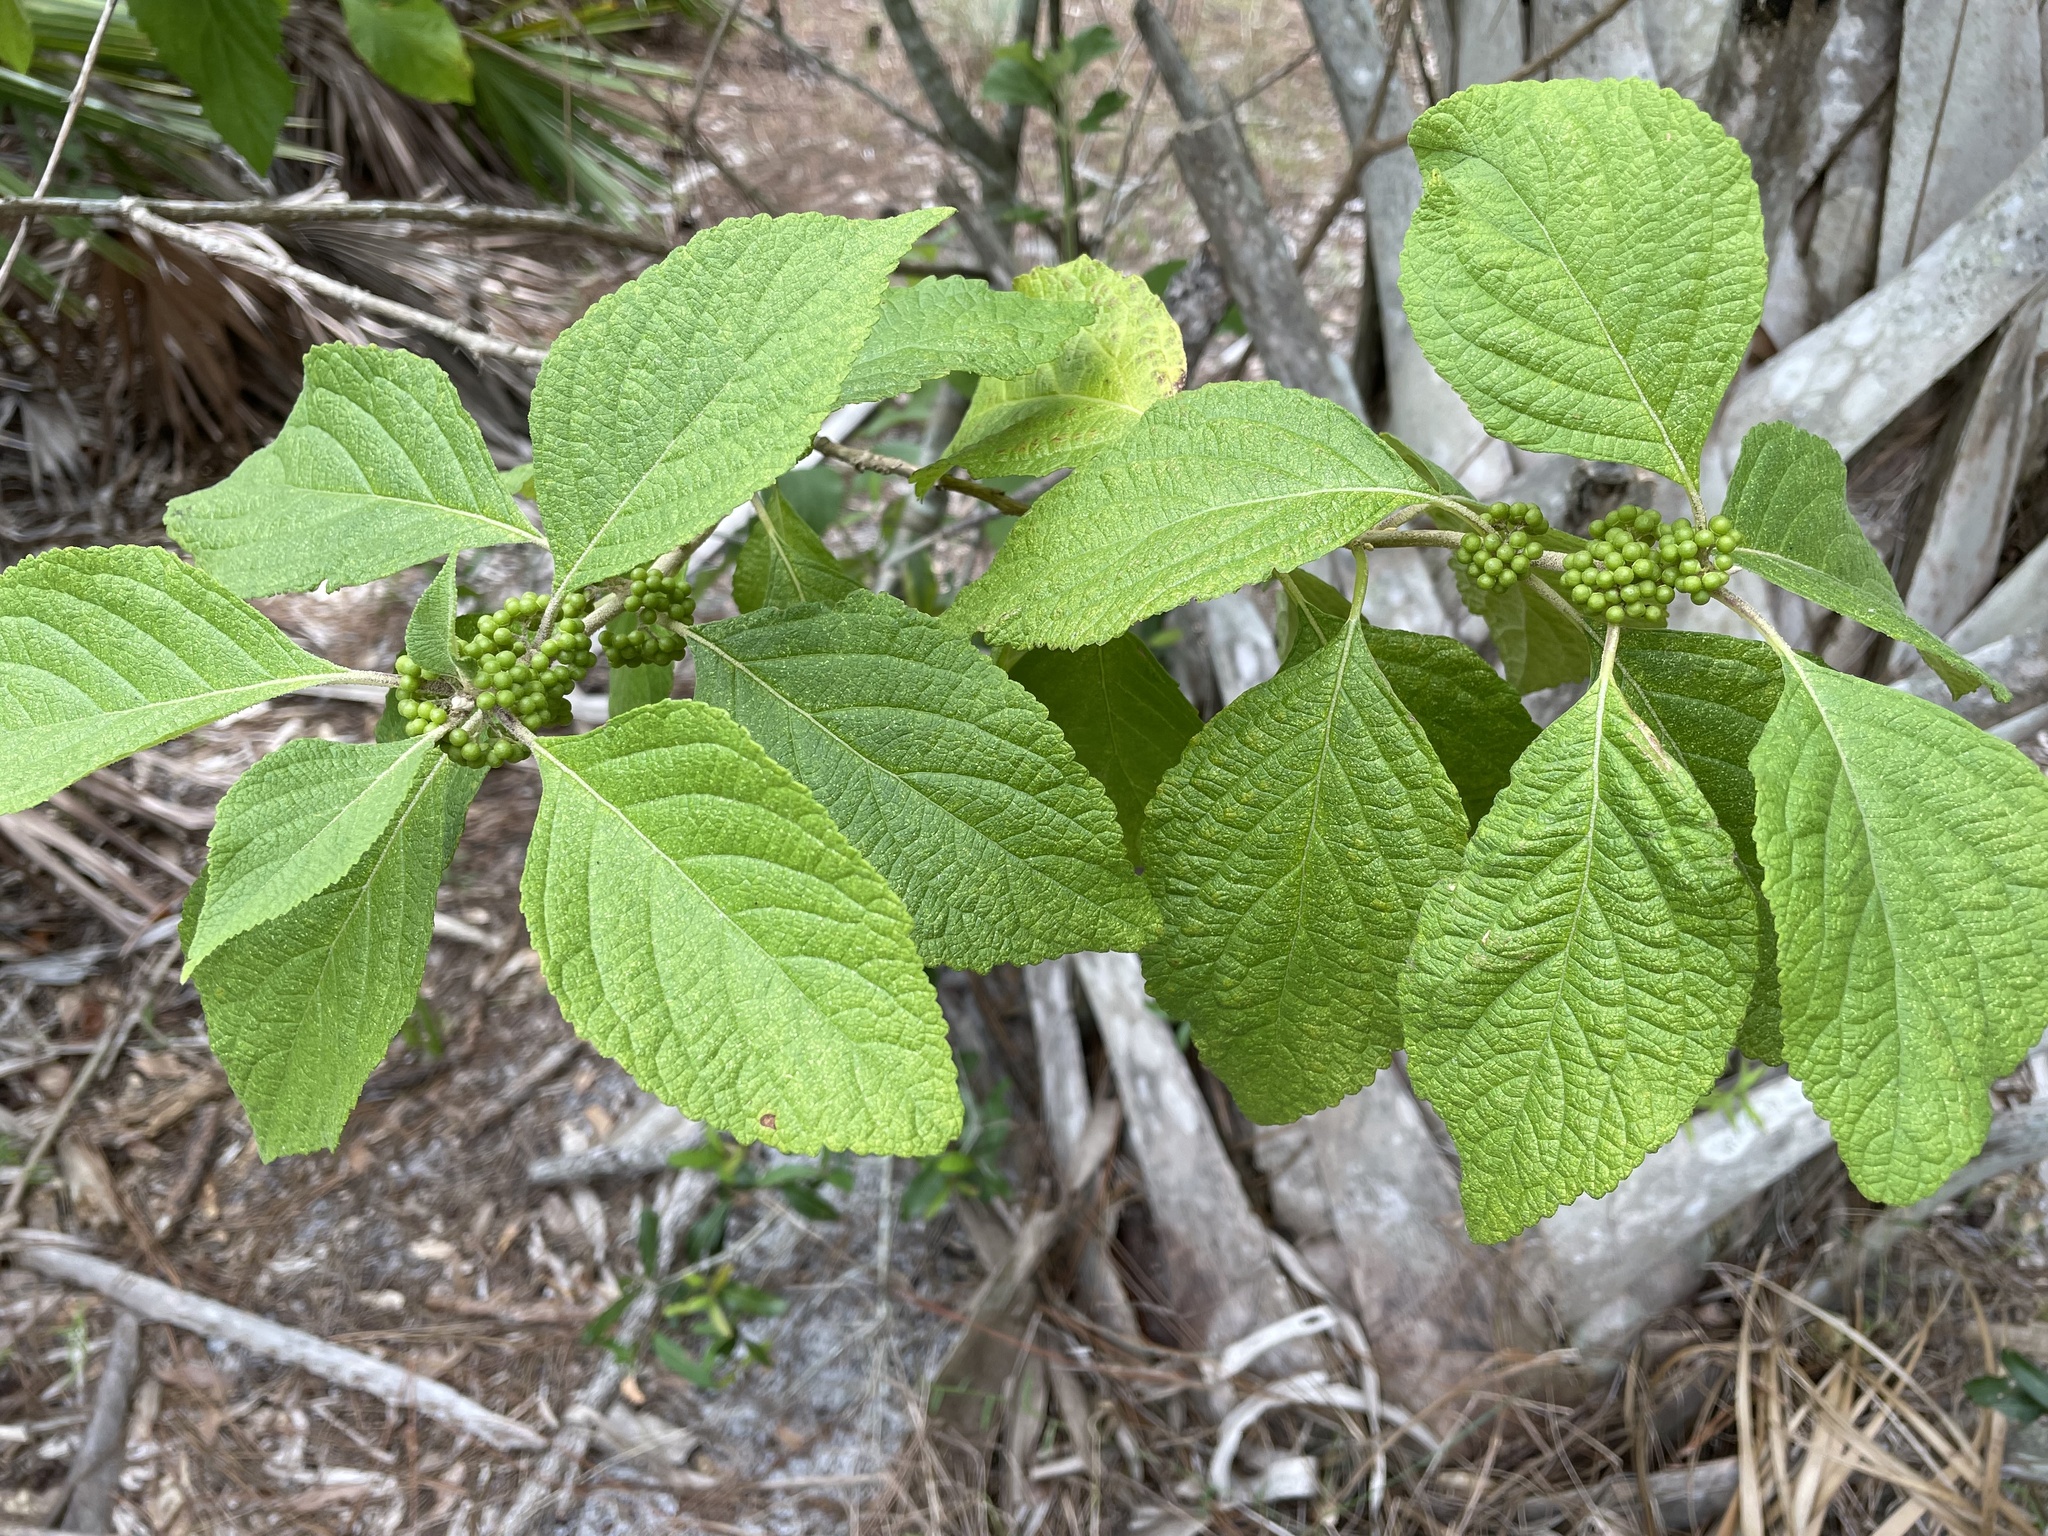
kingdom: Plantae
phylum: Tracheophyta
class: Magnoliopsida
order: Lamiales
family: Lamiaceae
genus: Callicarpa
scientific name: Callicarpa americana
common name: American beautyberry
